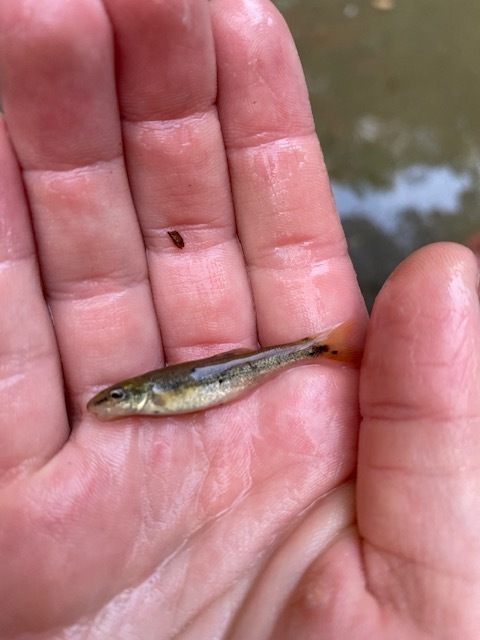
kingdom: Animalia
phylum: Chordata
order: Cypriniformes
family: Cyprinidae
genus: Rhinichthys
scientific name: Rhinichthys cataractae
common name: Longnose dace
